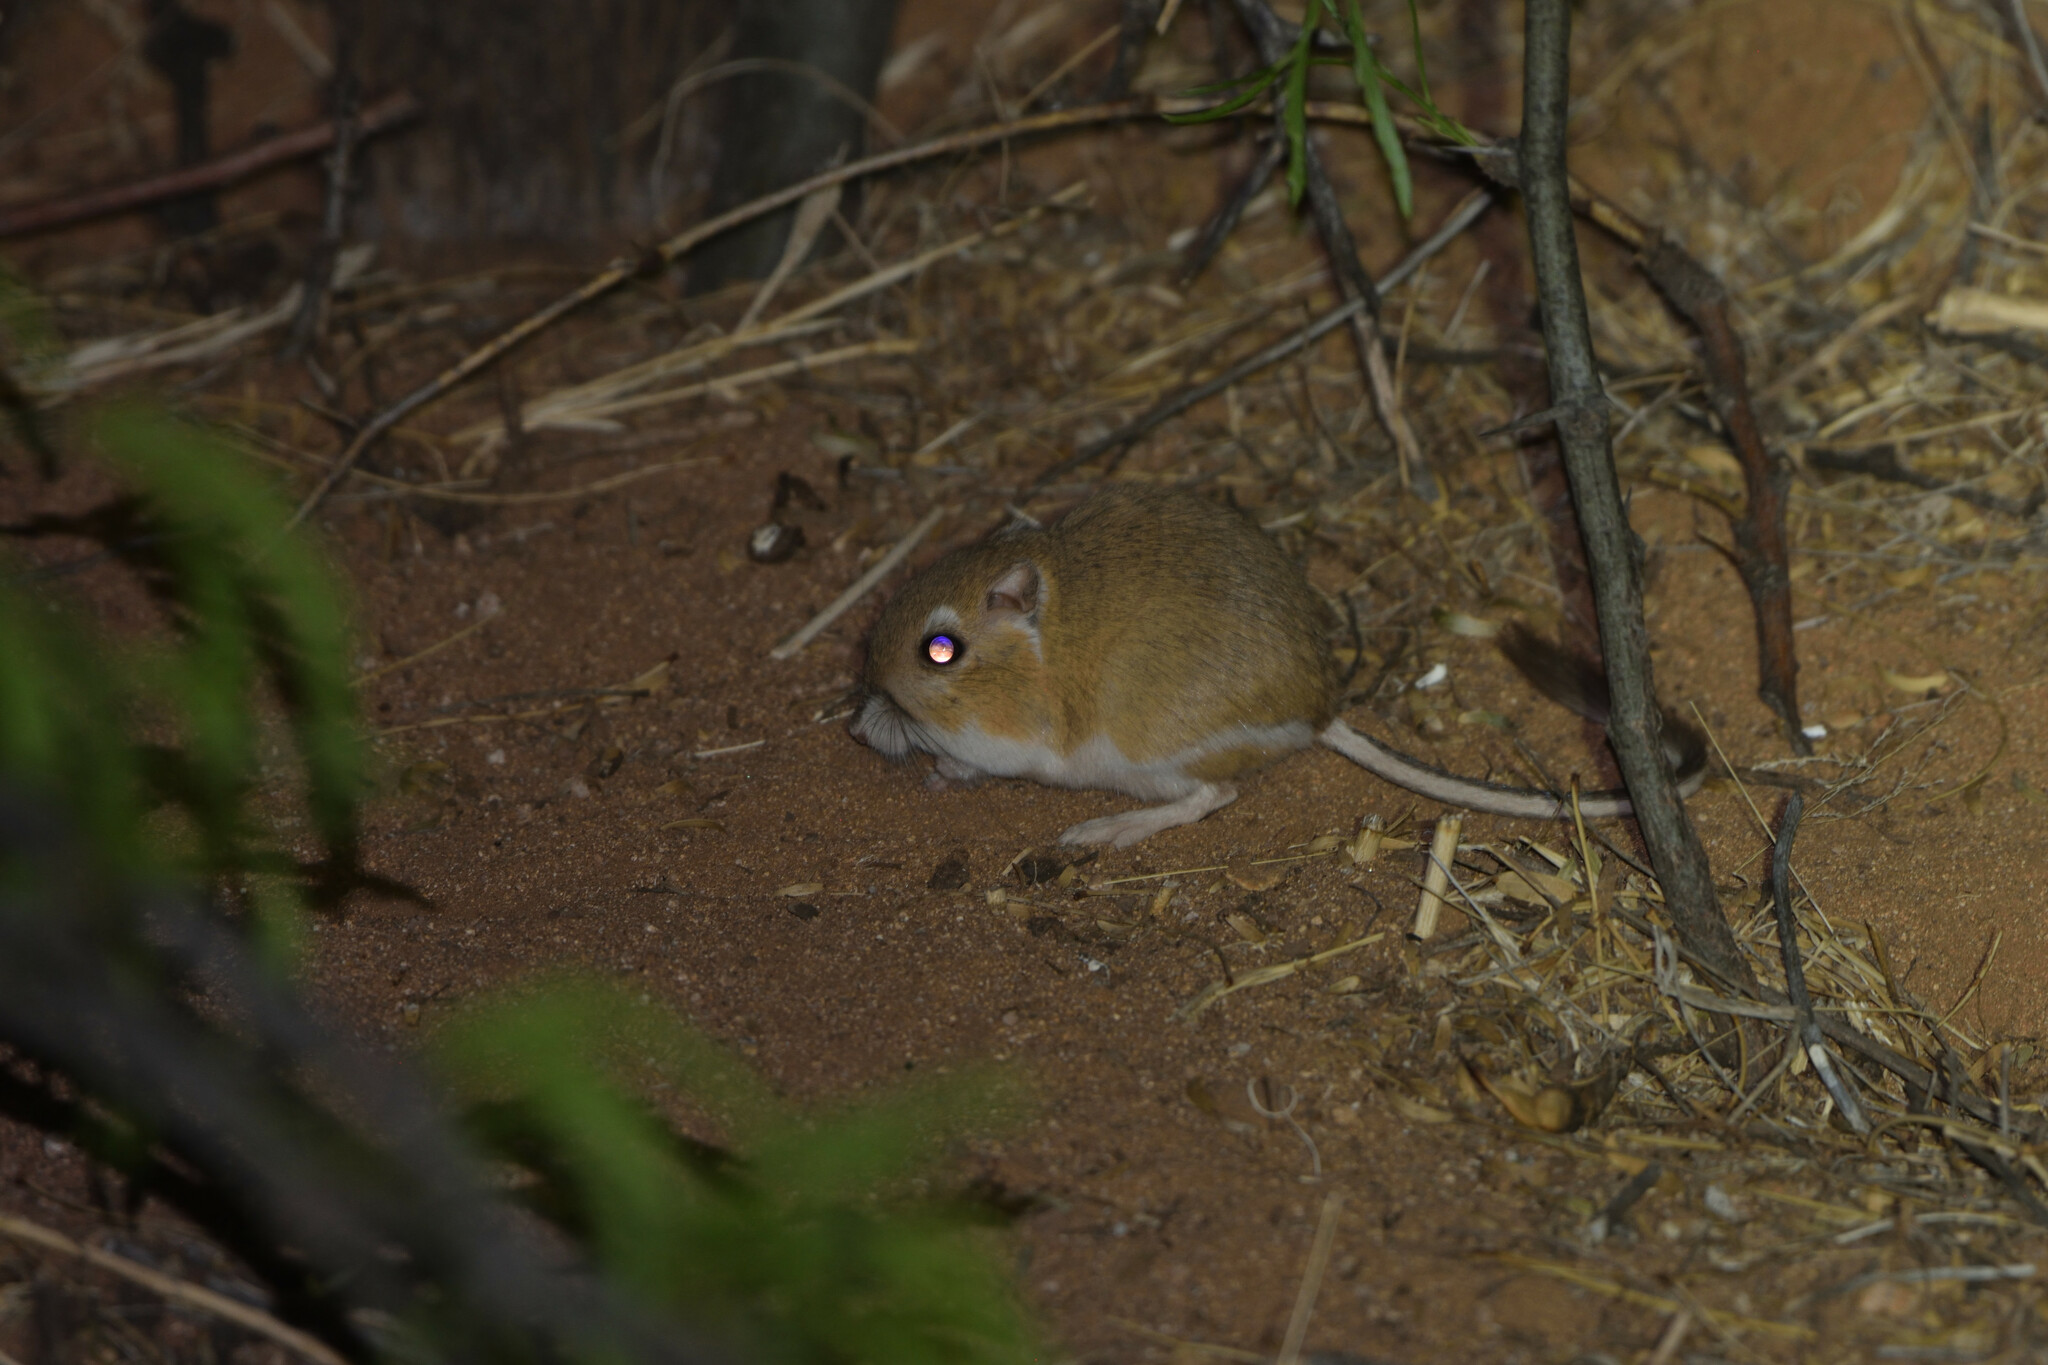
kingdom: Animalia
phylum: Chordata
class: Mammalia
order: Rodentia
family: Heteromyidae
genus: Dipodomys
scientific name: Dipodomys merriami
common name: Merriam's kangaroo rat
